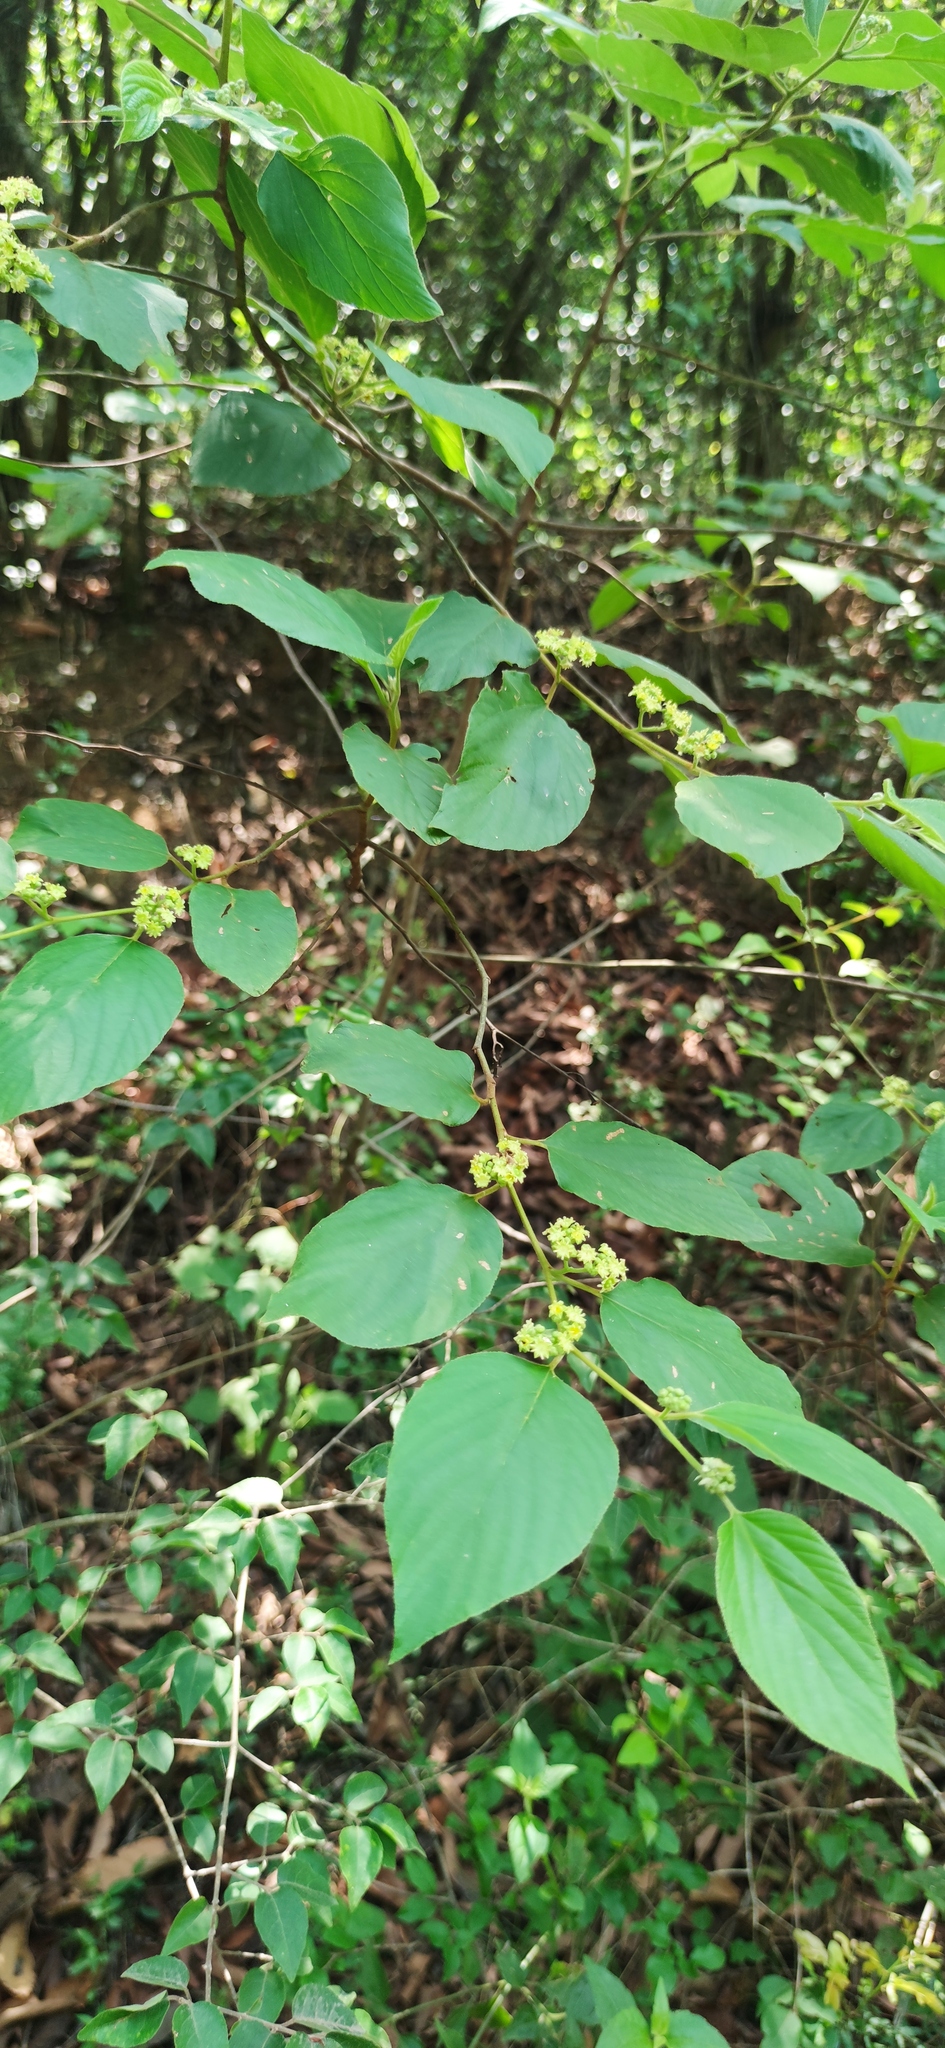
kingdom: Plantae
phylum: Tracheophyta
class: Magnoliopsida
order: Rosales
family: Rhamnaceae
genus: Colubrina
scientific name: Colubrina greggii
